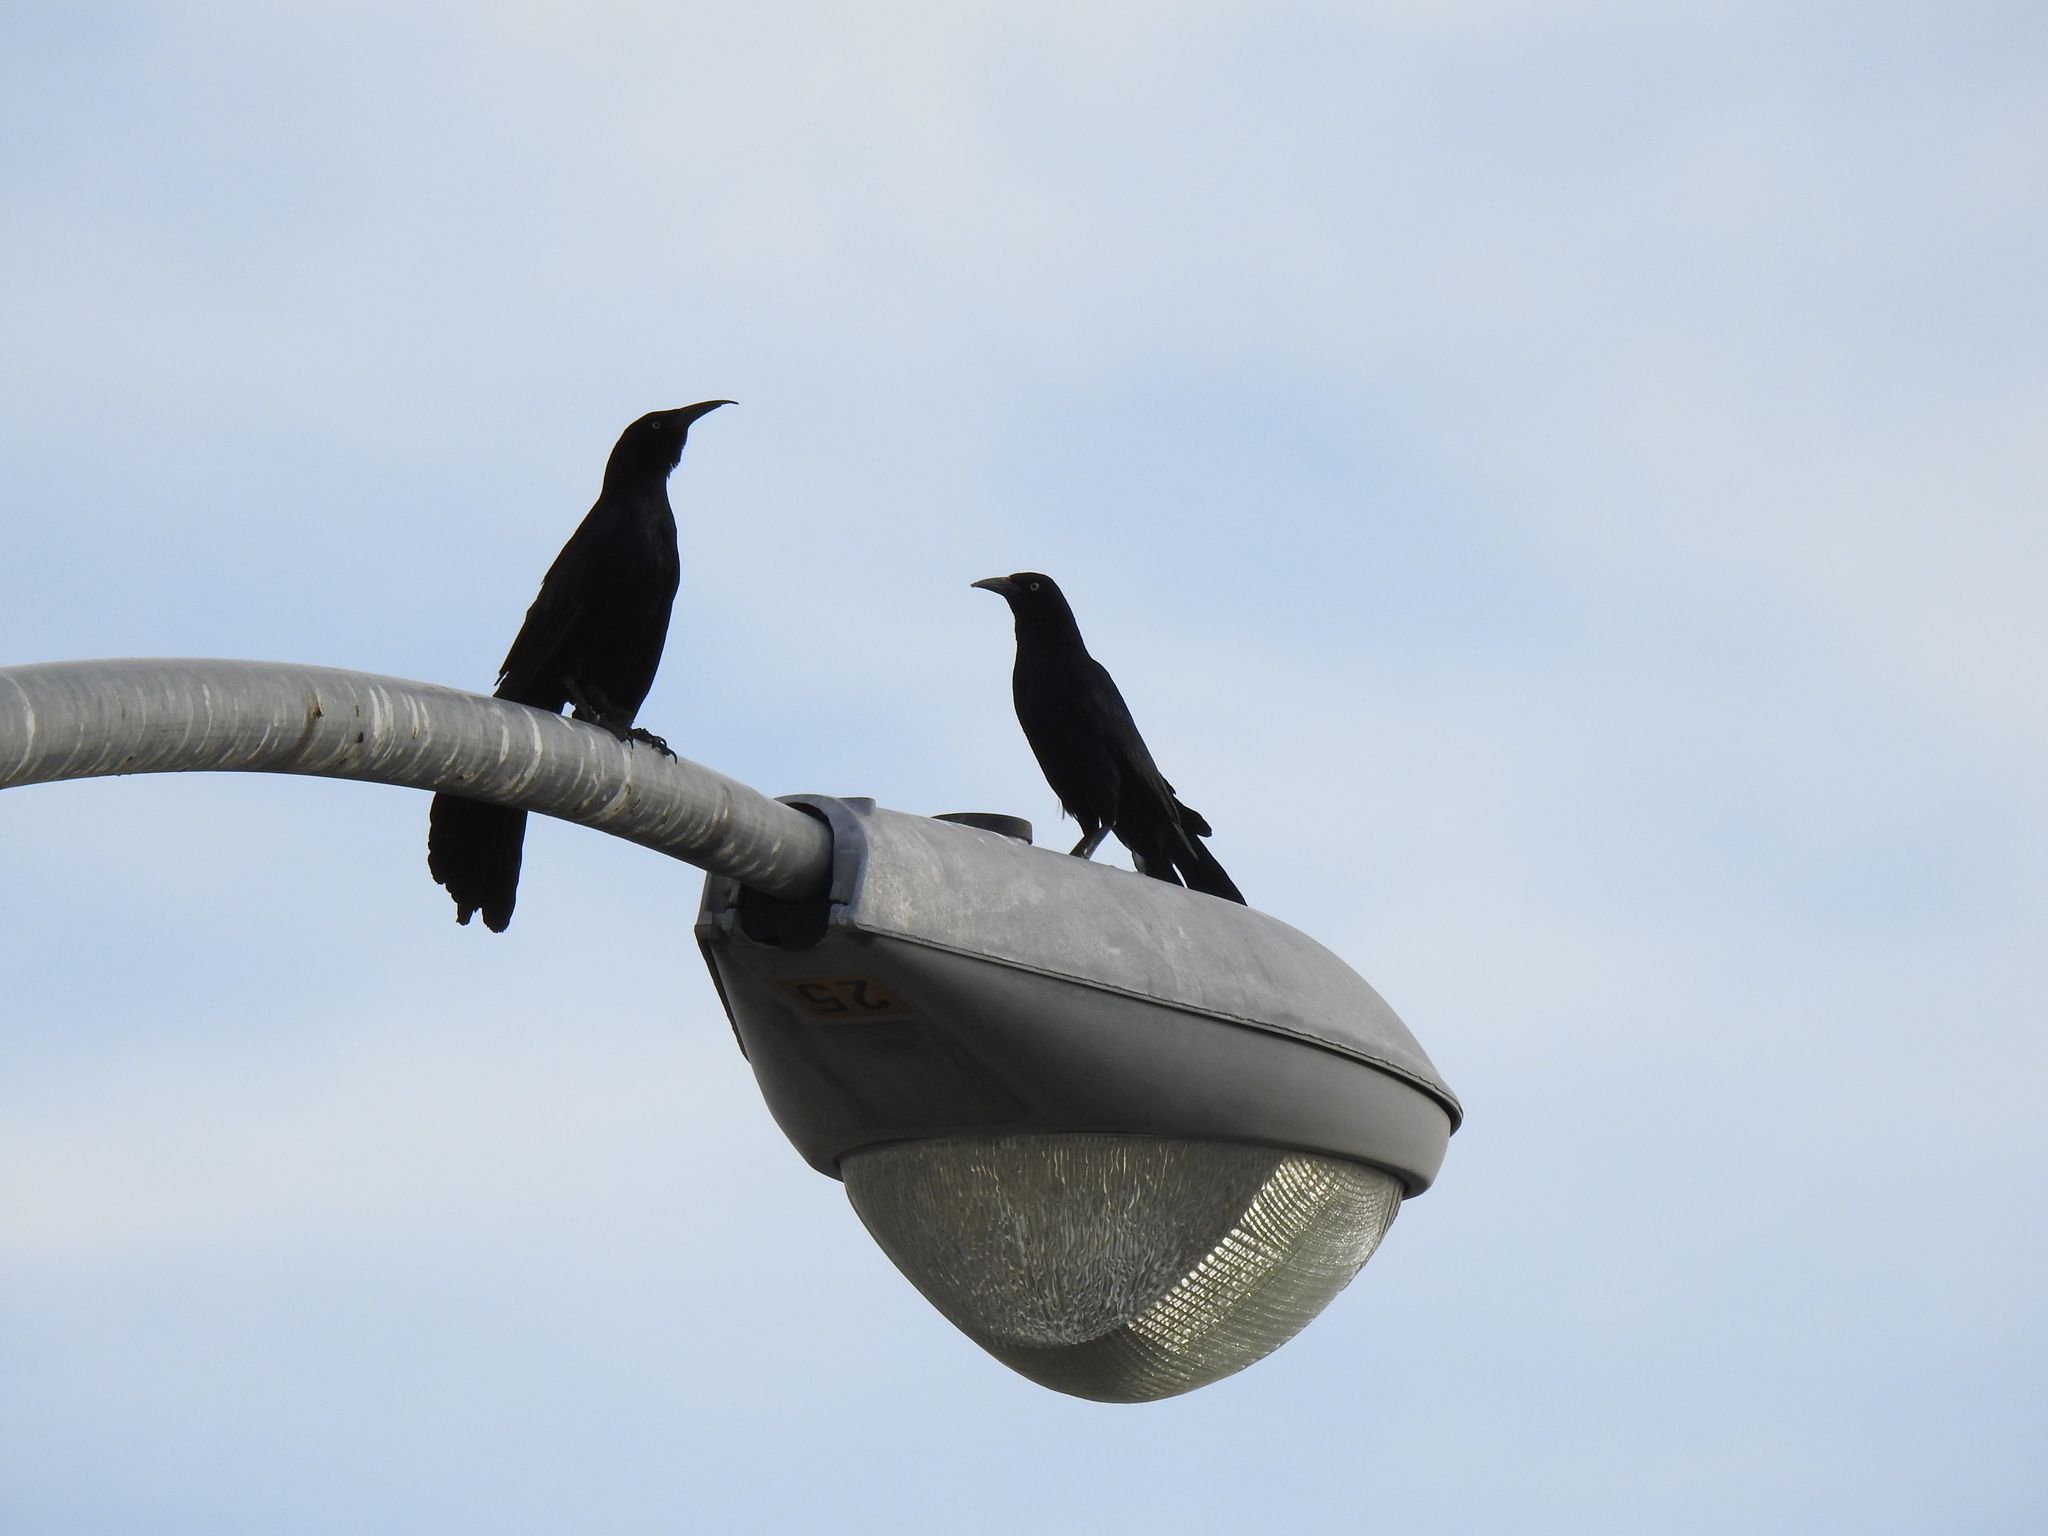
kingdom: Animalia
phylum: Chordata
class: Aves
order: Passeriformes
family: Icteridae
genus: Quiscalus
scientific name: Quiscalus mexicanus
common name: Great-tailed grackle
